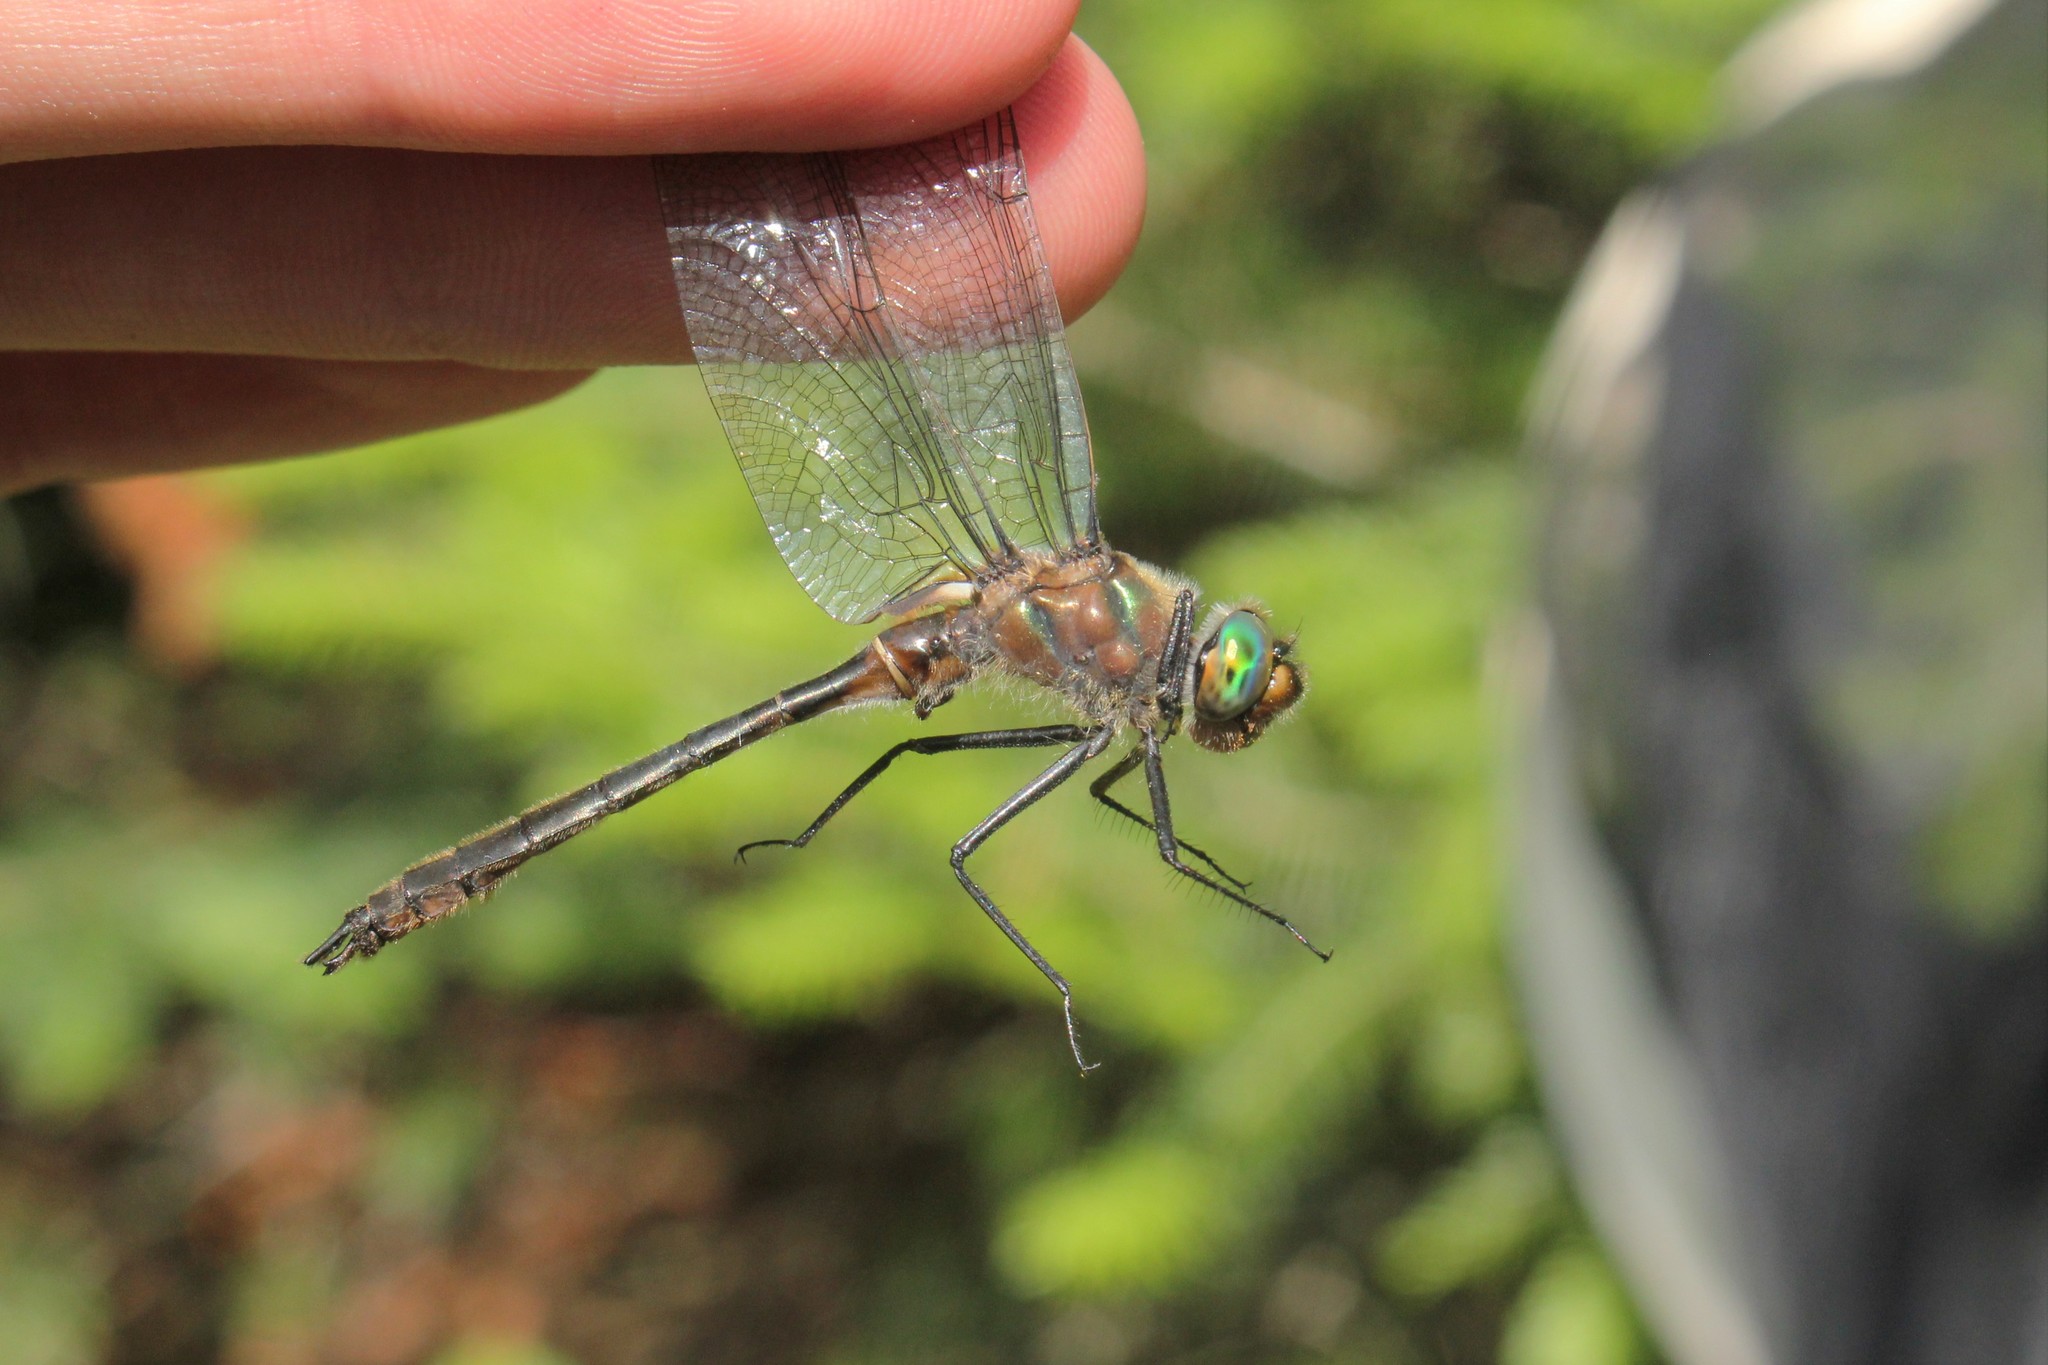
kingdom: Animalia
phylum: Arthropoda
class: Insecta
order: Odonata
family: Corduliidae
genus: Cordulia
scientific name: Cordulia shurtleffii
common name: American emerald
